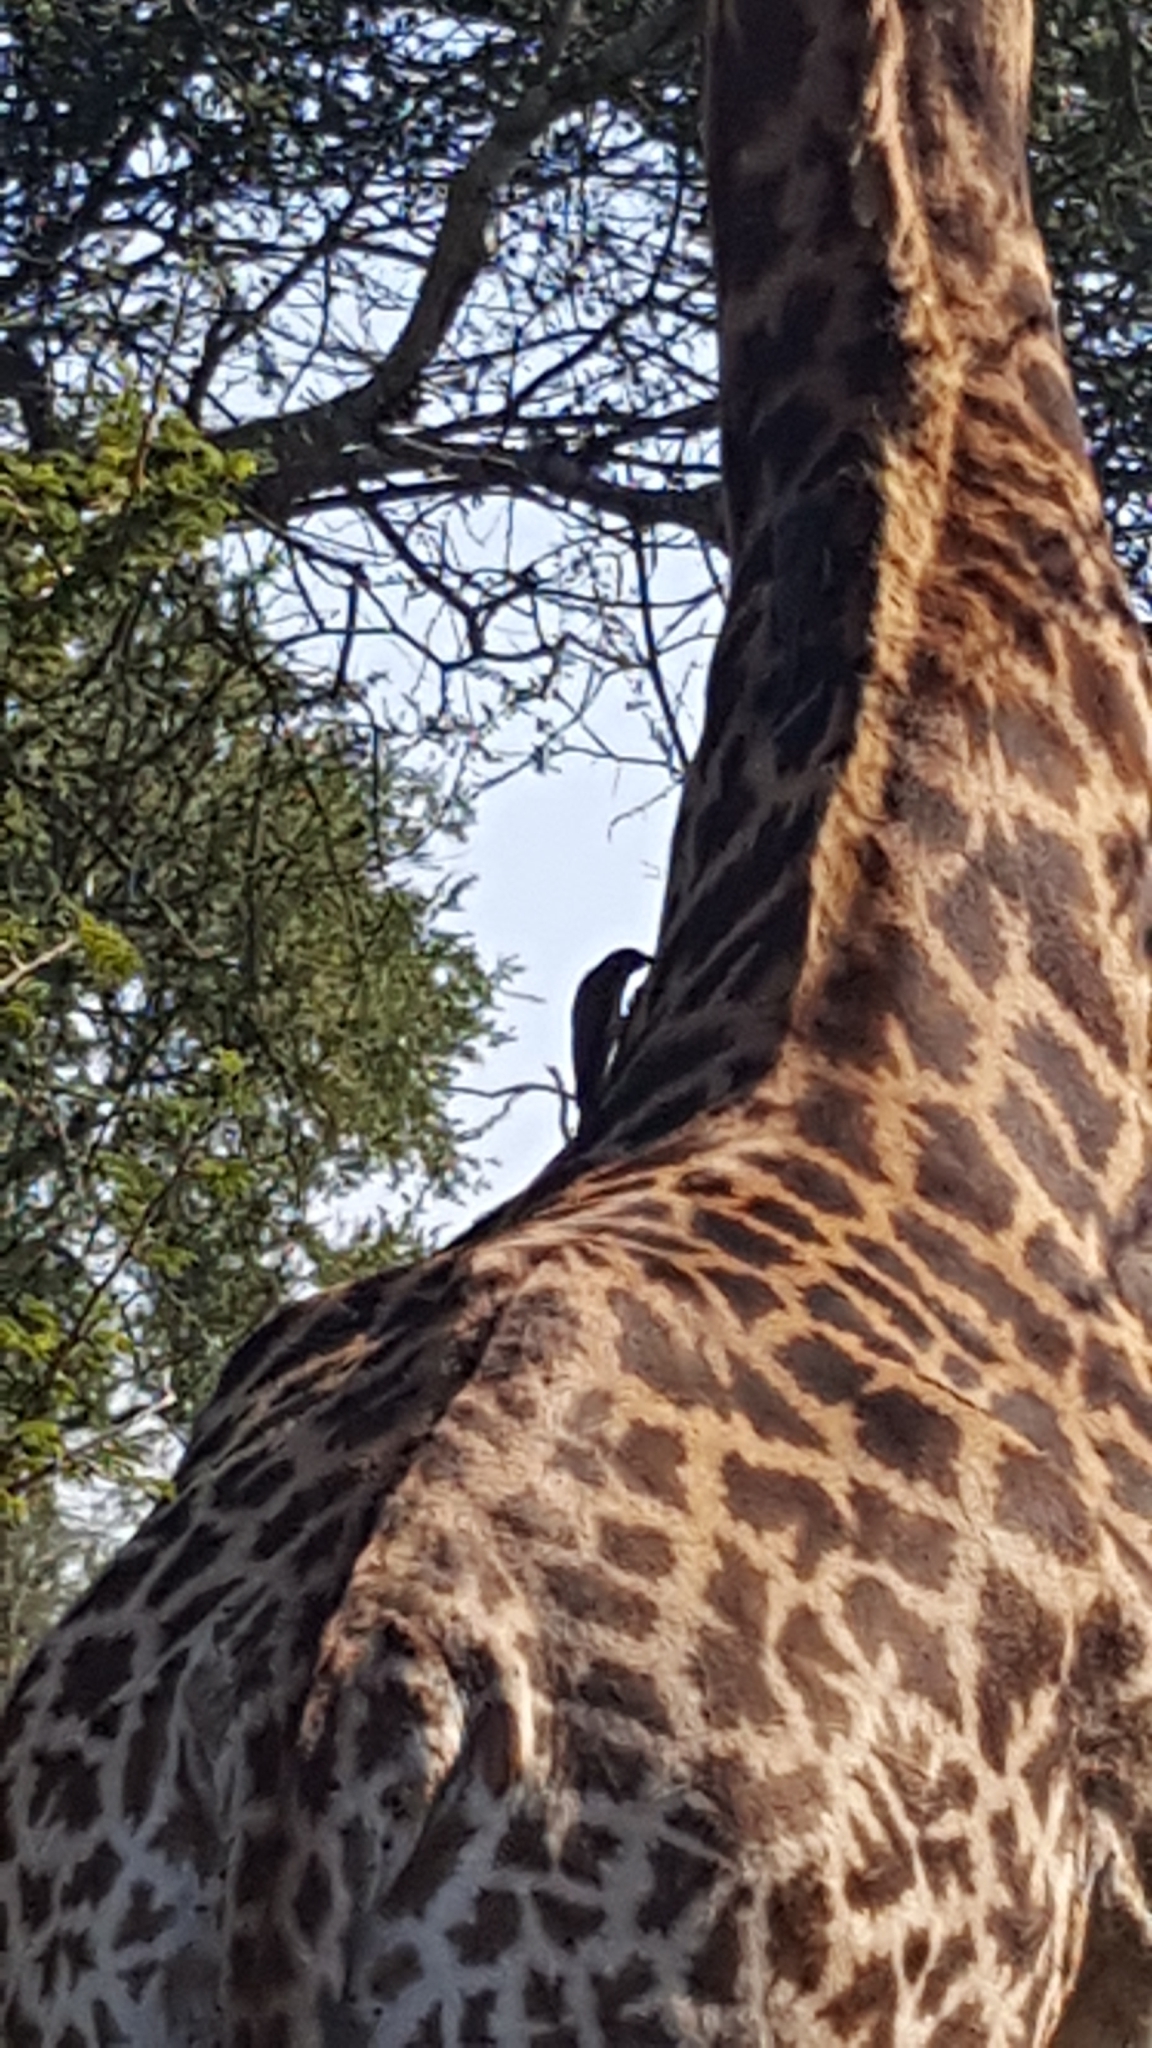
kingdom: Animalia
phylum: Chordata
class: Aves
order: Passeriformes
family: Buphagidae
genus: Buphagus
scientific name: Buphagus erythrorhynchus
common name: Red-billed oxpecker
